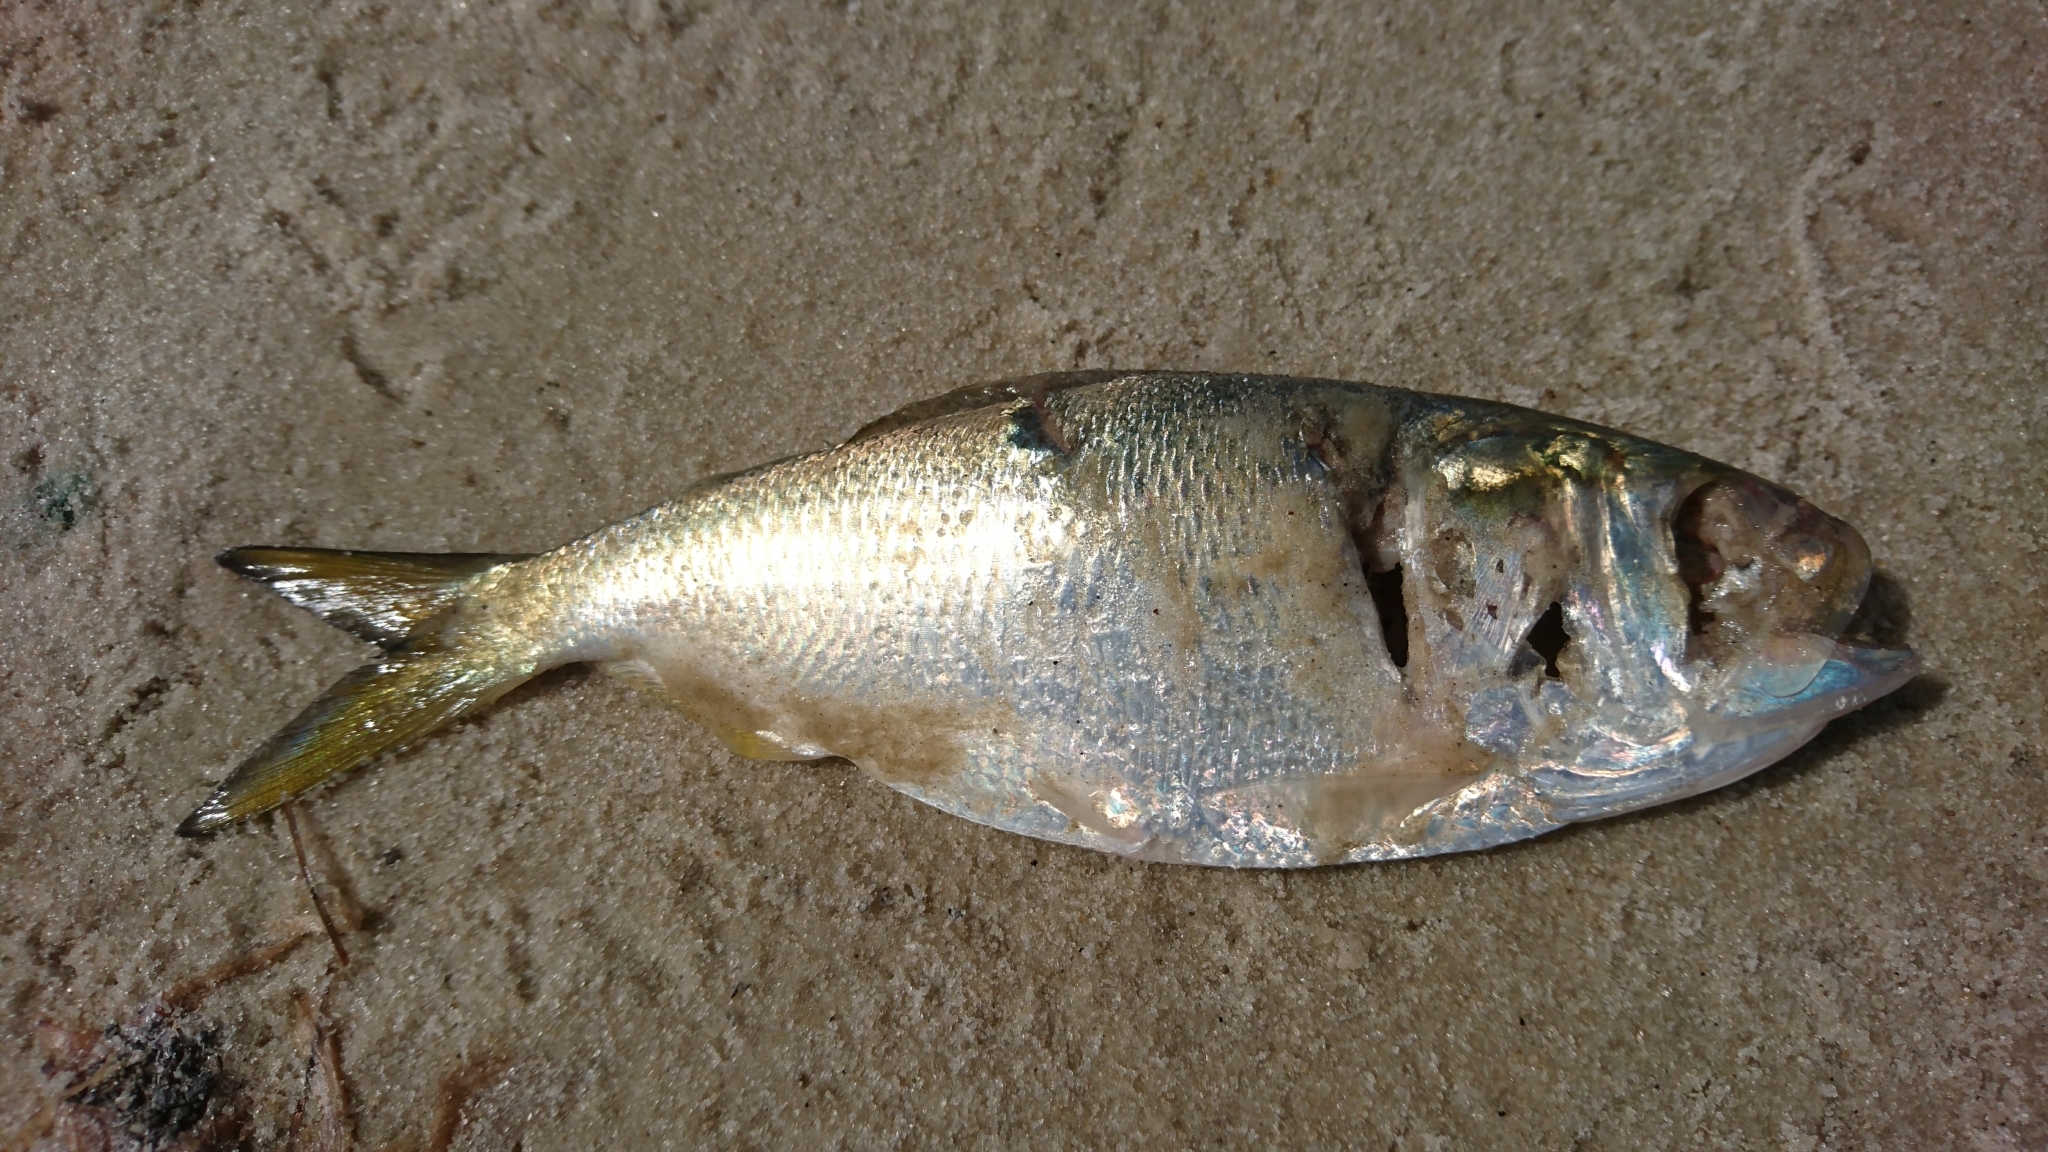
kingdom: Animalia
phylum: Chordata
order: Clupeiformes
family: Clupeidae
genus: Brevoortia
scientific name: Brevoortia patronus
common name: Gulf menhaden
